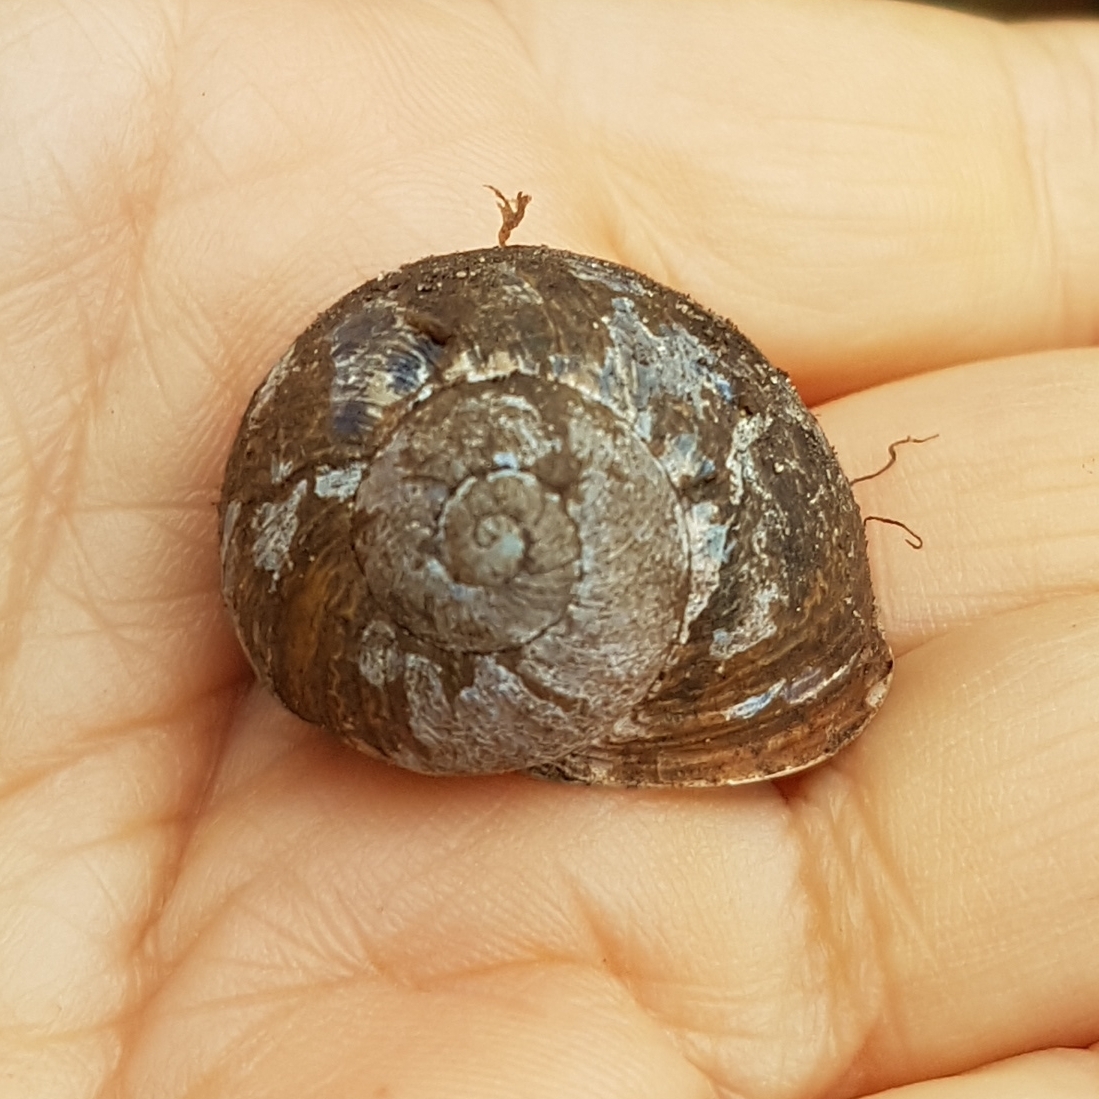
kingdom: Animalia
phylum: Mollusca
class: Gastropoda
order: Stylommatophora
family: Helicidae
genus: Cornu
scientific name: Cornu aspersum
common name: Brown garden snail
